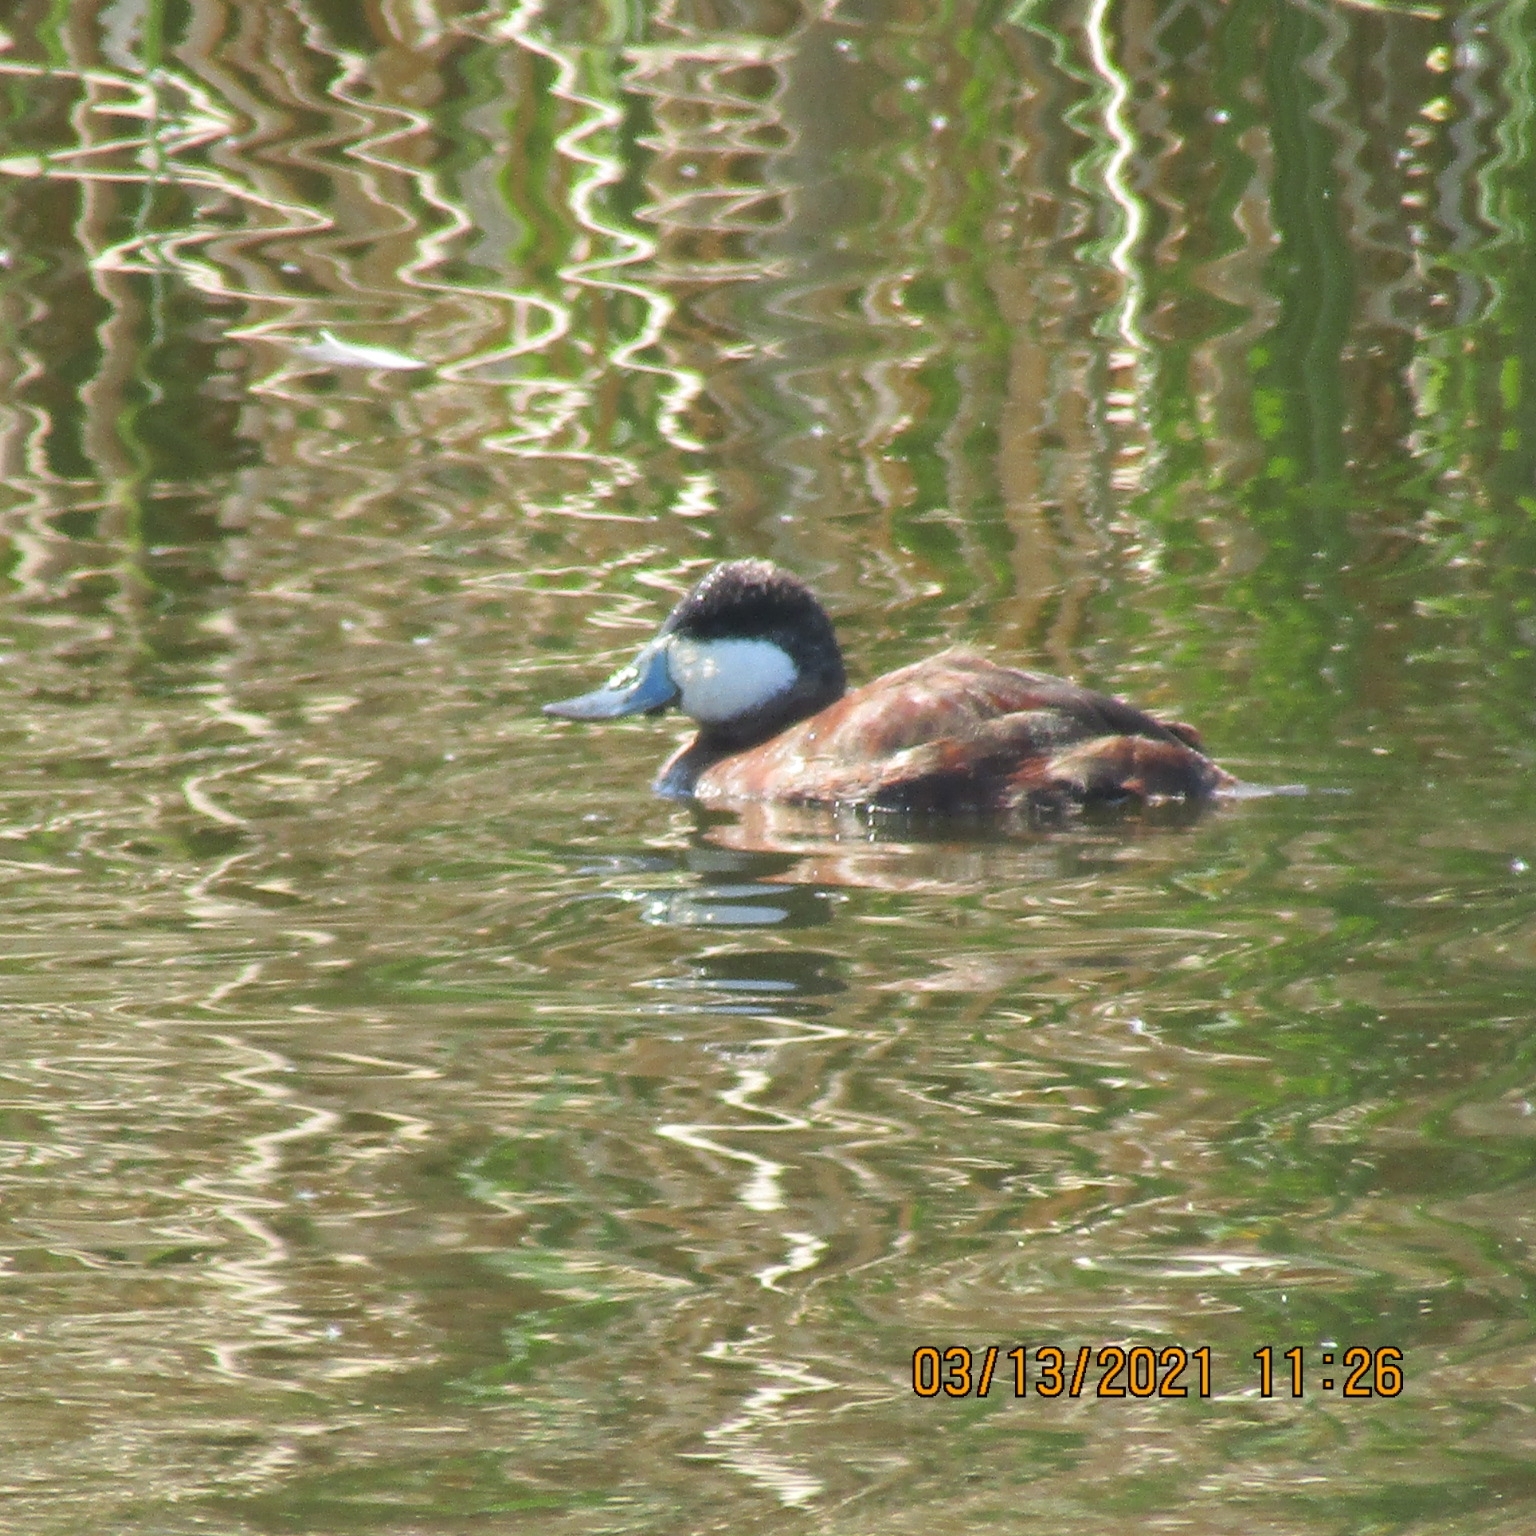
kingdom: Animalia
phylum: Chordata
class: Aves
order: Anseriformes
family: Anatidae
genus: Oxyura
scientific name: Oxyura jamaicensis
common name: Ruddy duck
